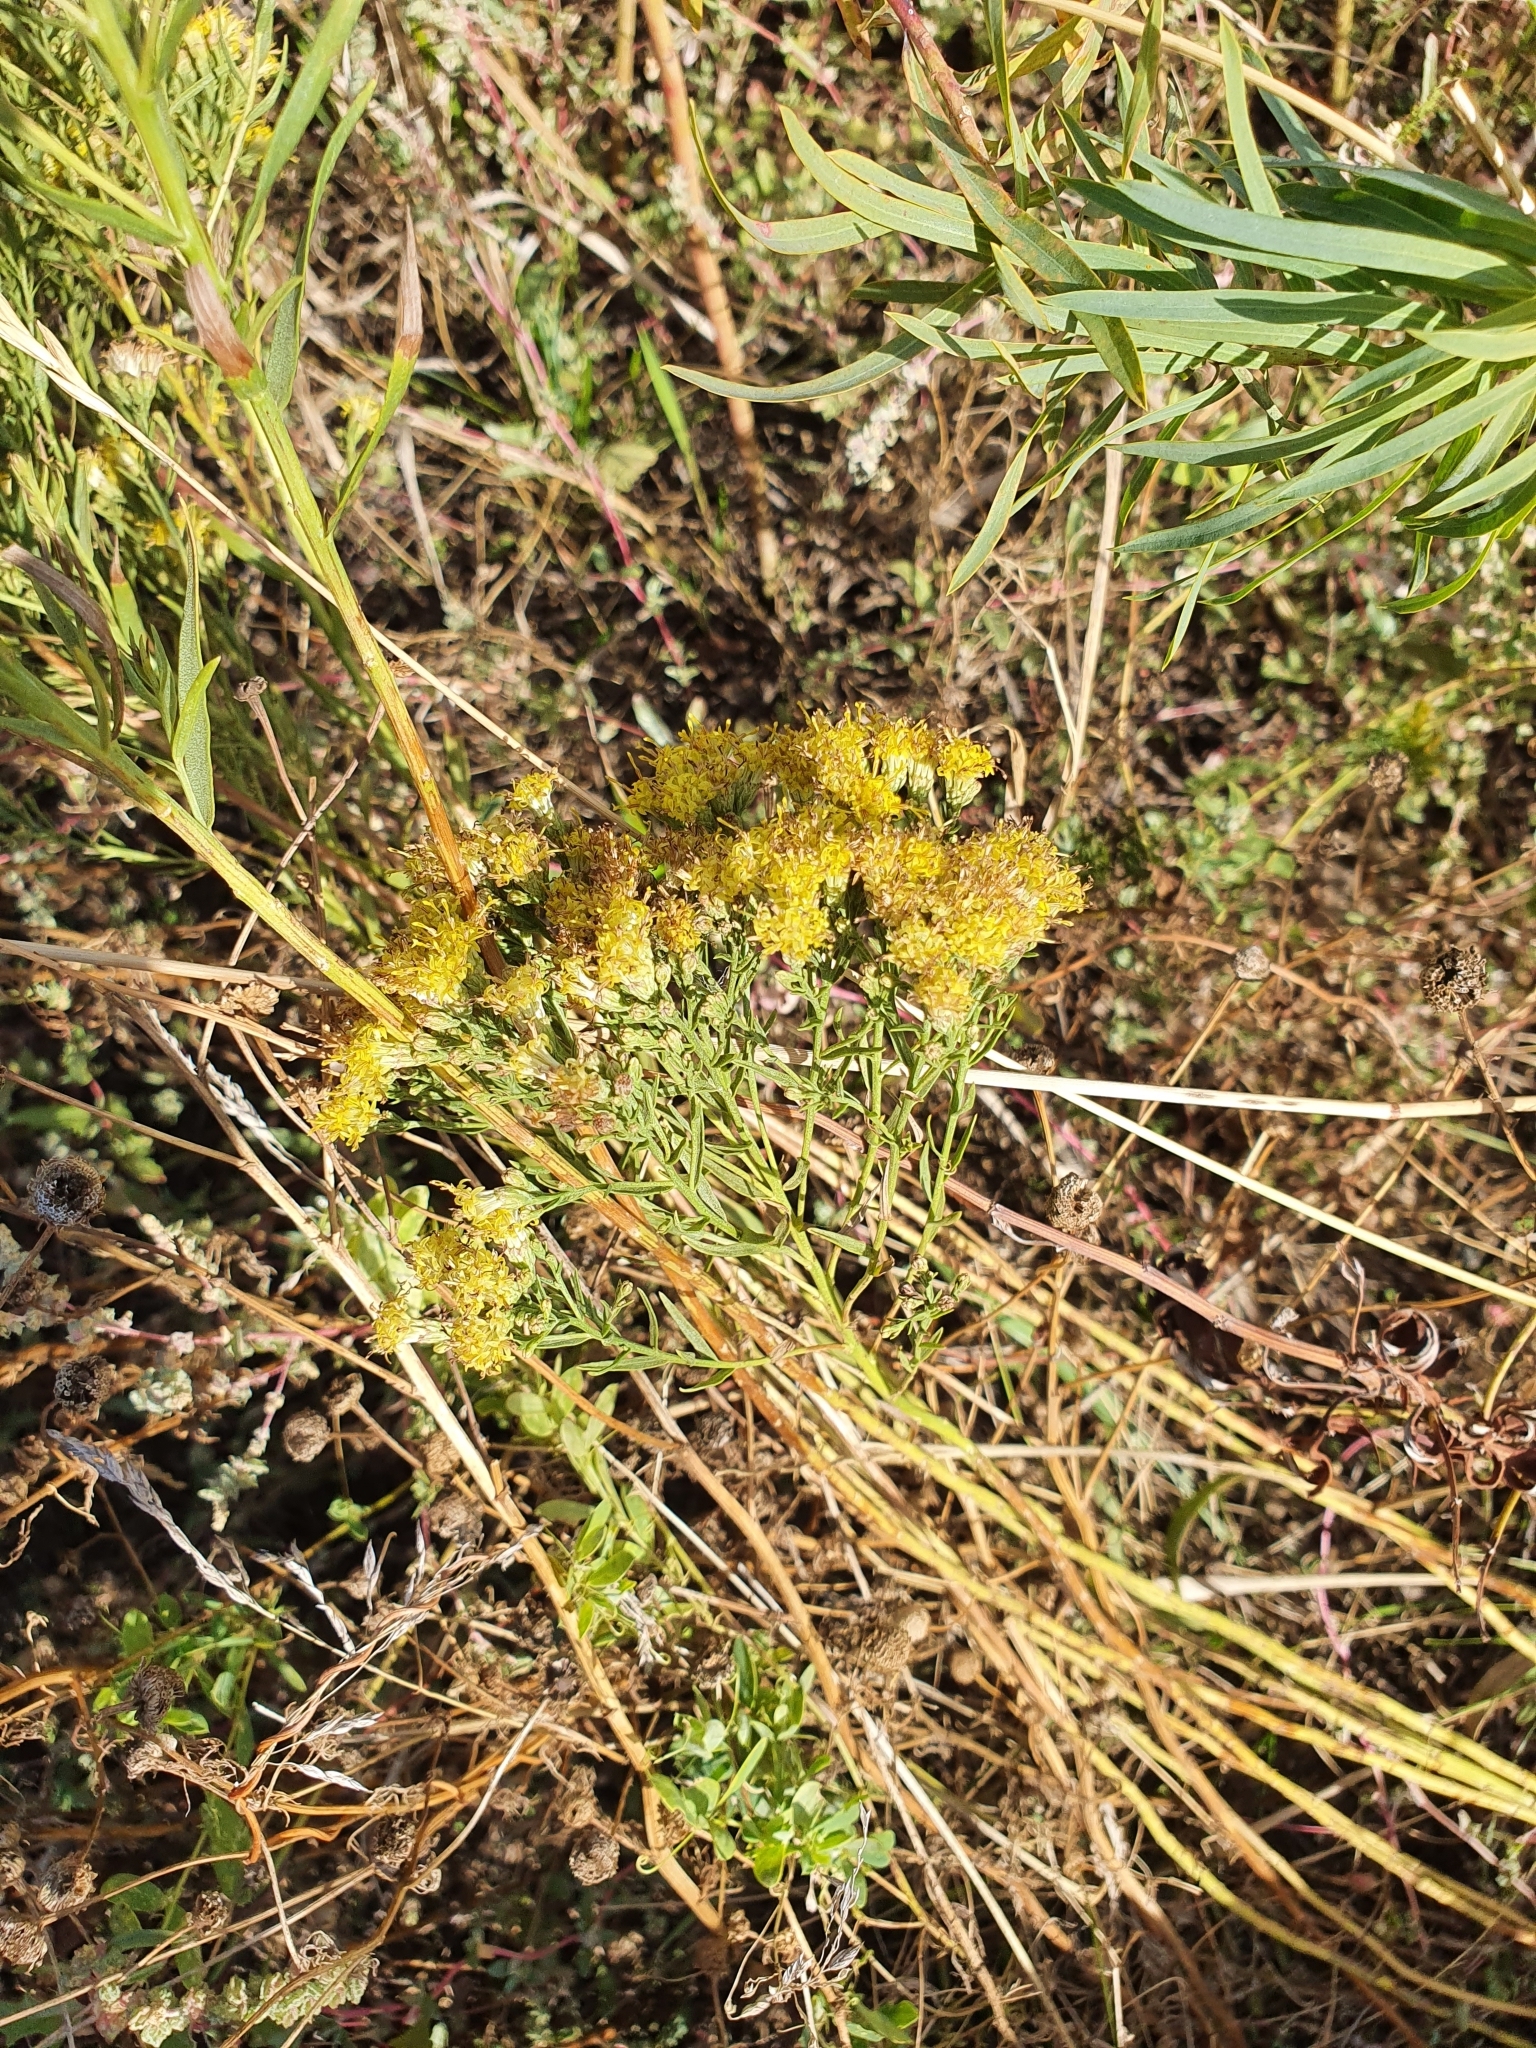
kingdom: Plantae
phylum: Tracheophyta
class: Magnoliopsida
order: Asterales
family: Asteraceae
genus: Galatella
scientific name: Galatella biflora
